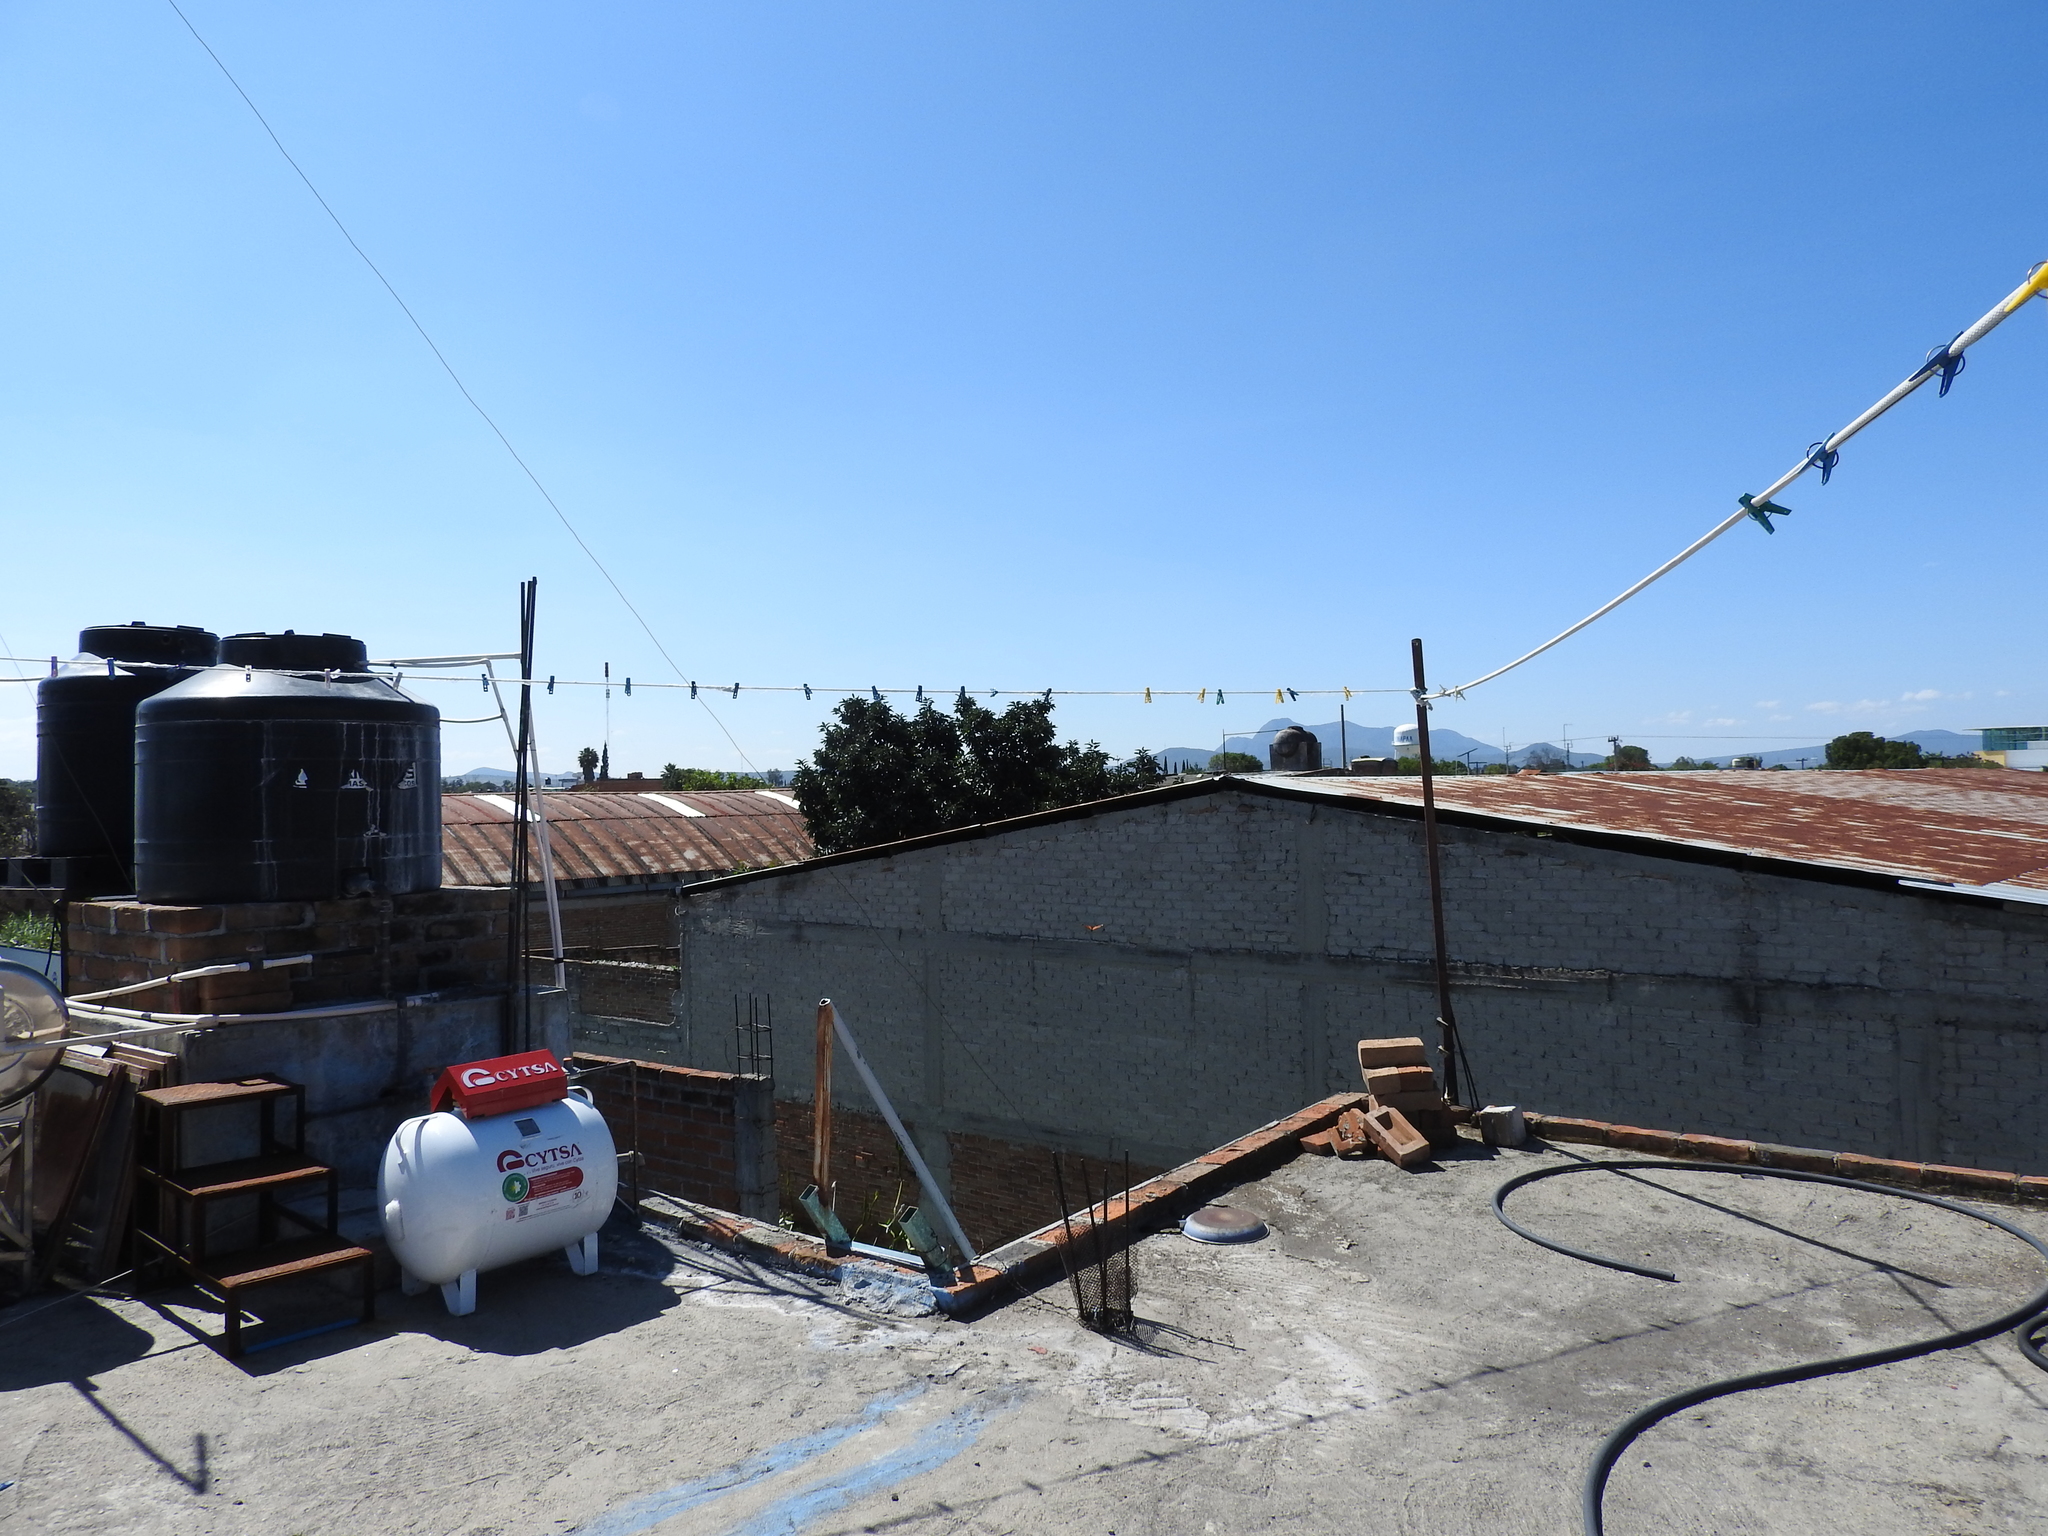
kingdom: Animalia
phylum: Arthropoda
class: Insecta
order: Lepidoptera
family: Nymphalidae
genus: Danaus
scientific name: Danaus plexippus
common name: Monarch
